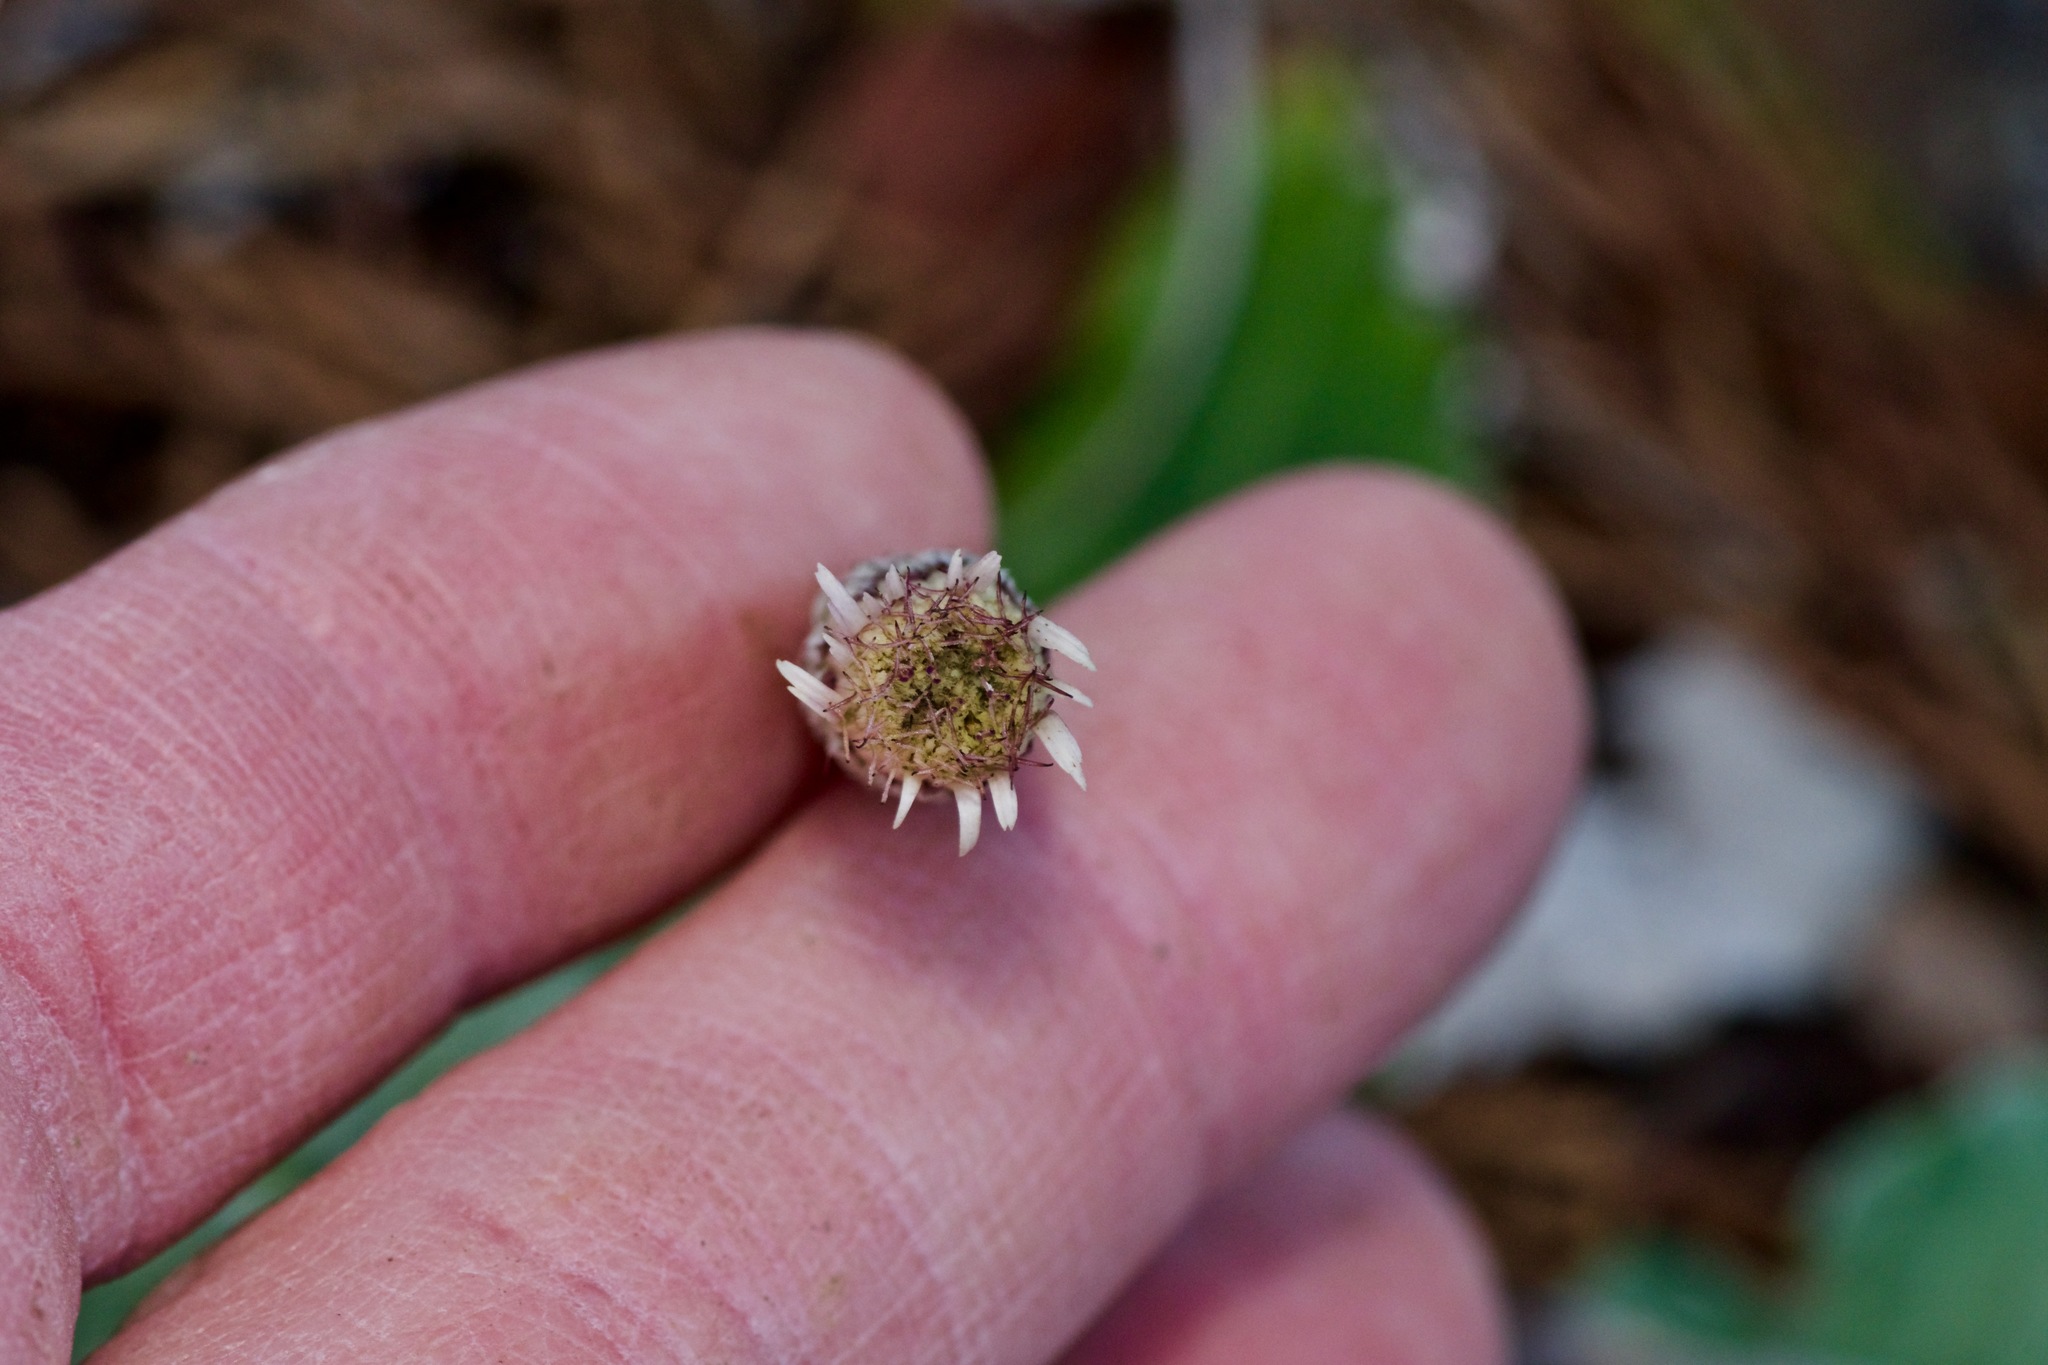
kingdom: Plantae
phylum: Tracheophyta
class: Magnoliopsida
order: Asterales
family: Asteraceae
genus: Chaptalia
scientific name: Chaptalia texana
